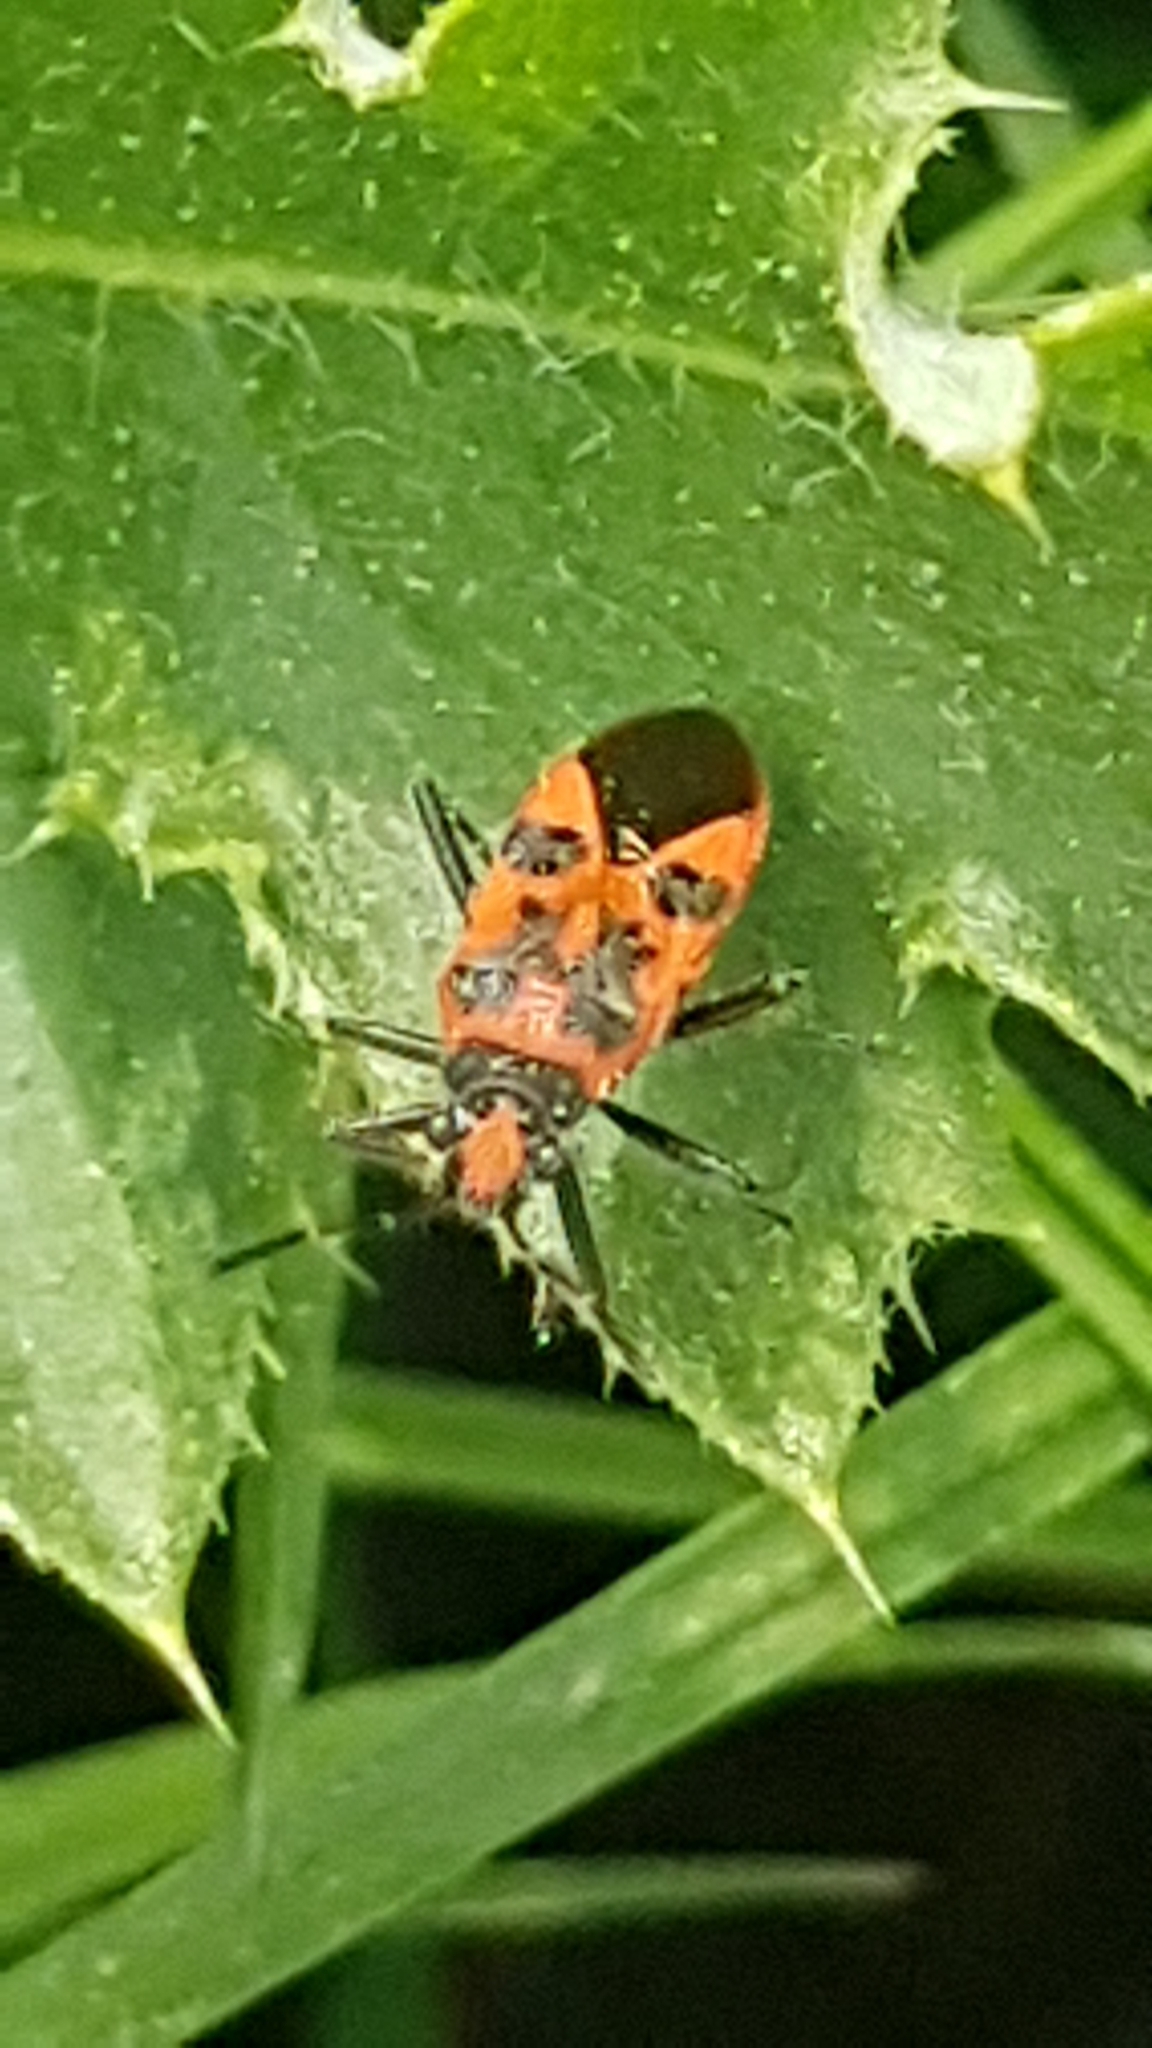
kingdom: Animalia
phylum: Arthropoda
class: Insecta
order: Hemiptera
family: Rhopalidae
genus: Corizus
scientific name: Corizus hyoscyami
